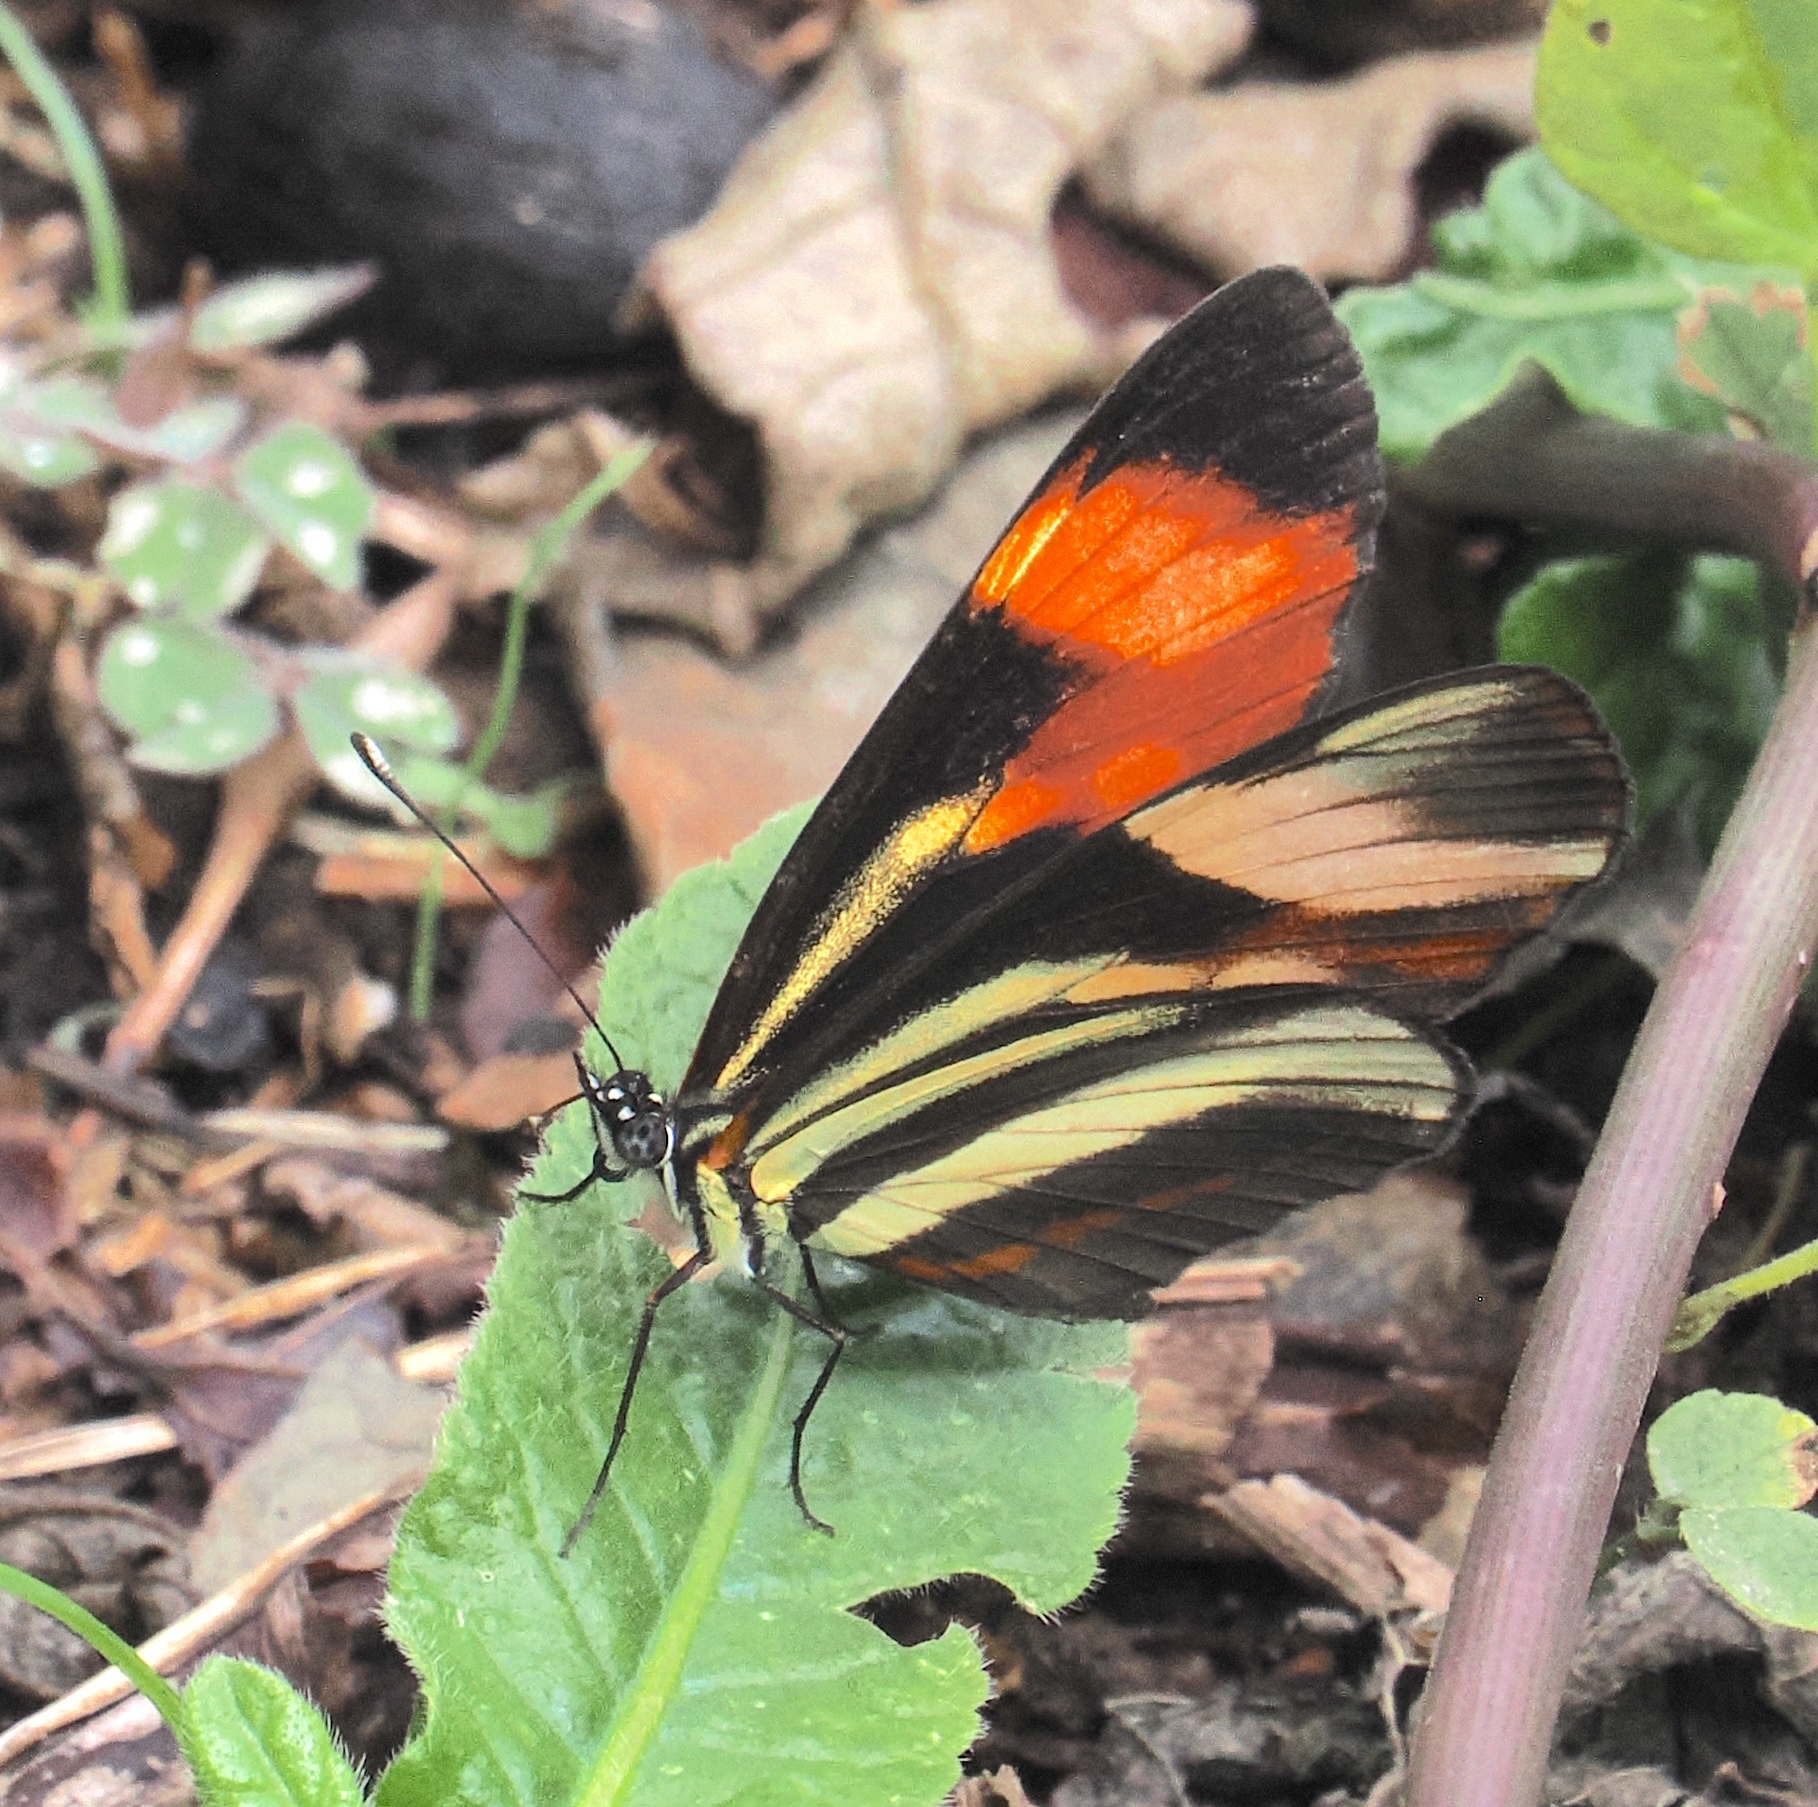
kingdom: Animalia
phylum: Arthropoda
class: Insecta
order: Lepidoptera
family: Nymphalidae
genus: Eresia
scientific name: Eresia lansdorfi
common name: Lansdorf's crescent
